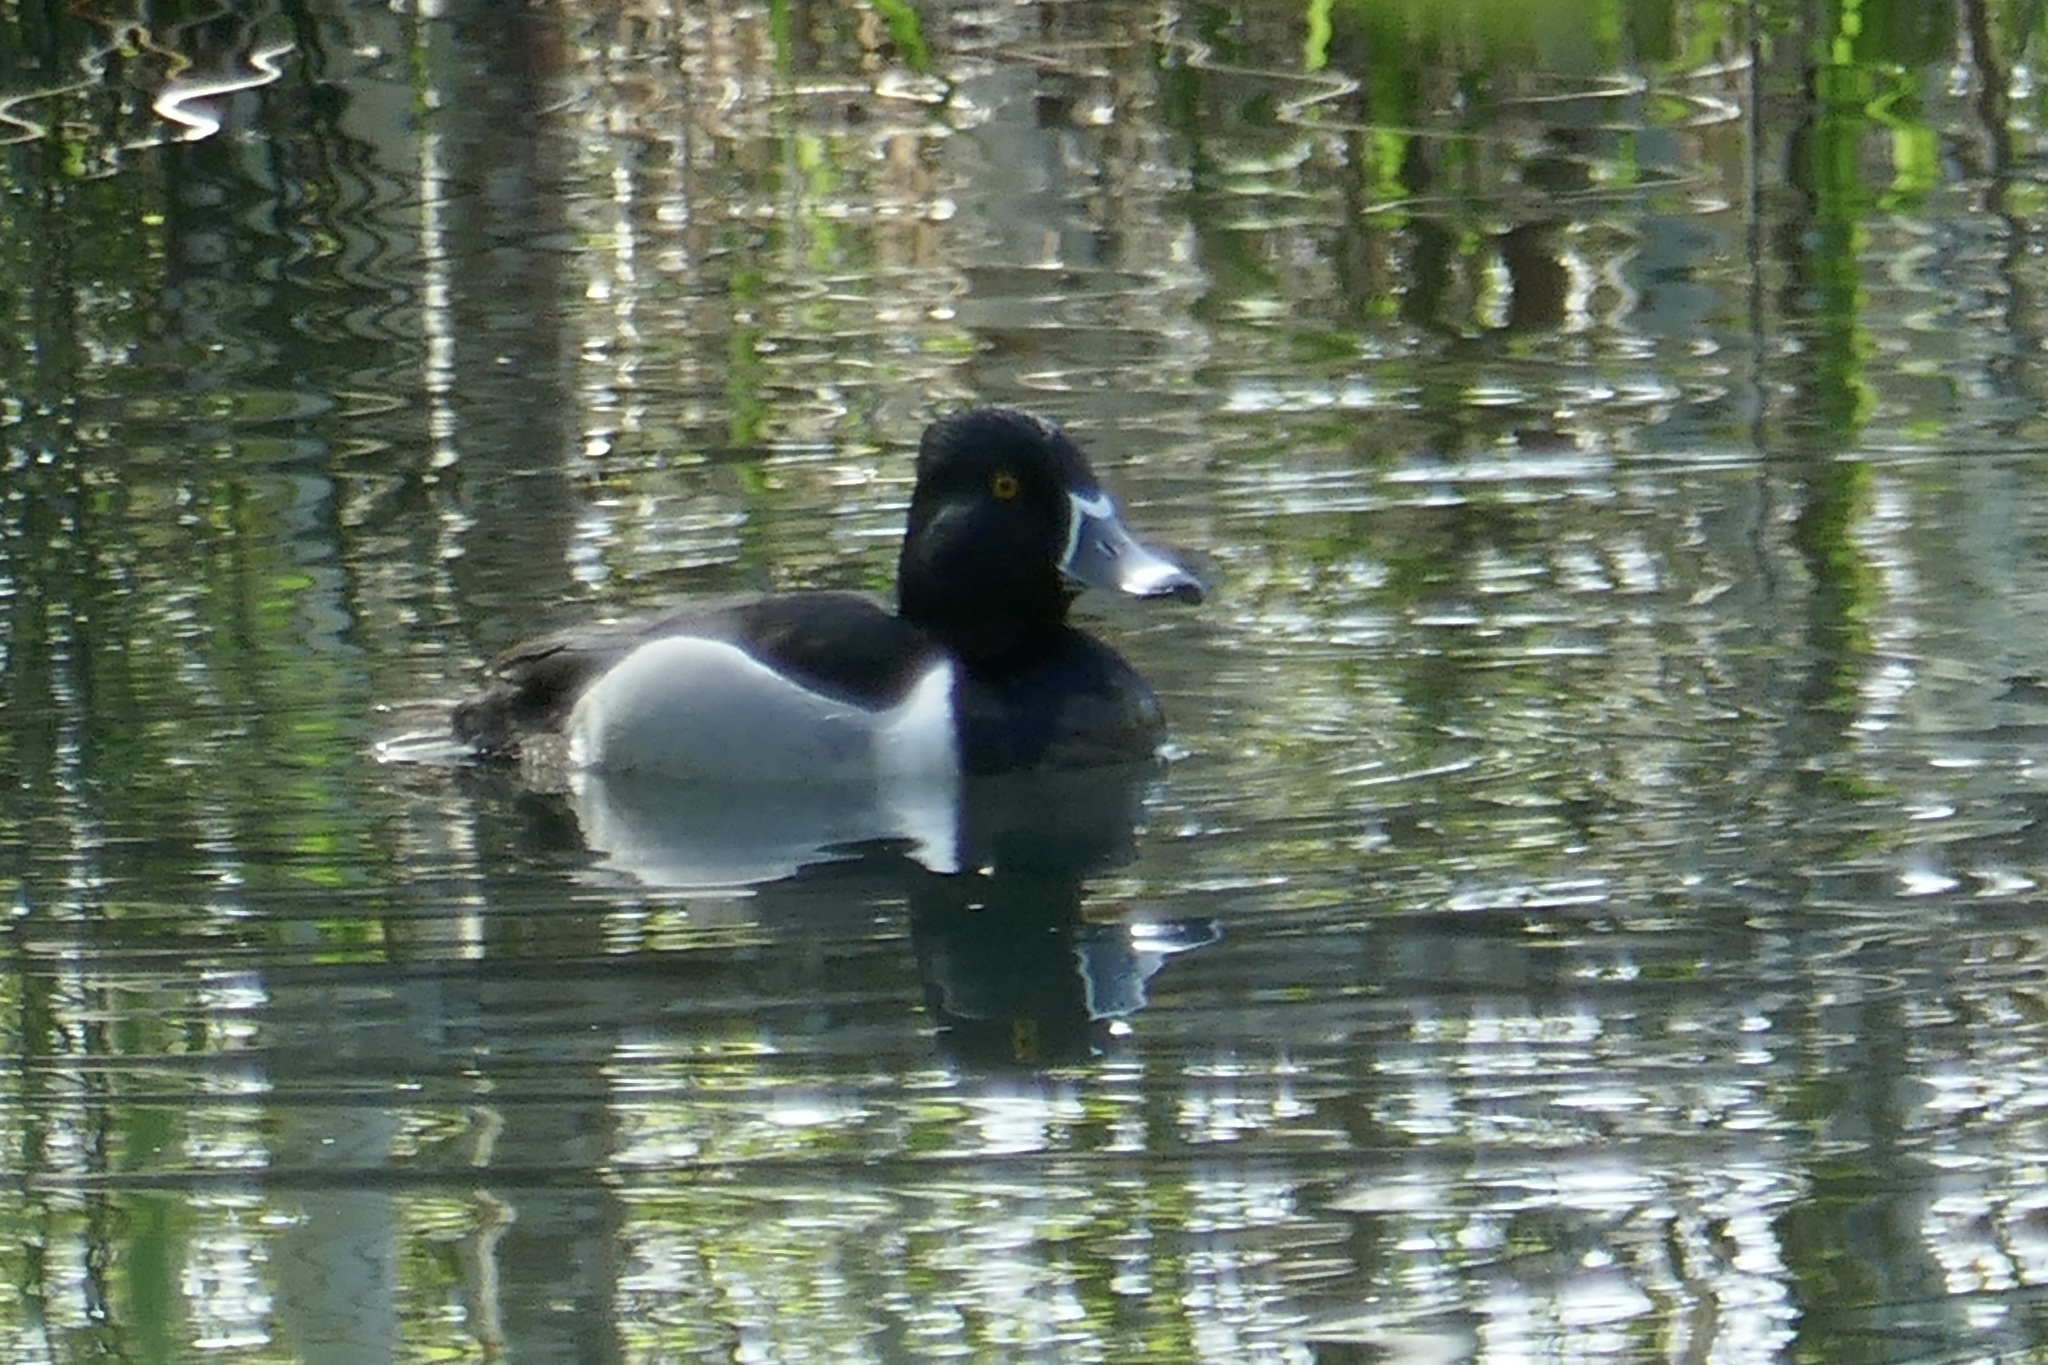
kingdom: Animalia
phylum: Chordata
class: Aves
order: Anseriformes
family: Anatidae
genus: Aythya
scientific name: Aythya collaris
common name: Ring-necked duck
